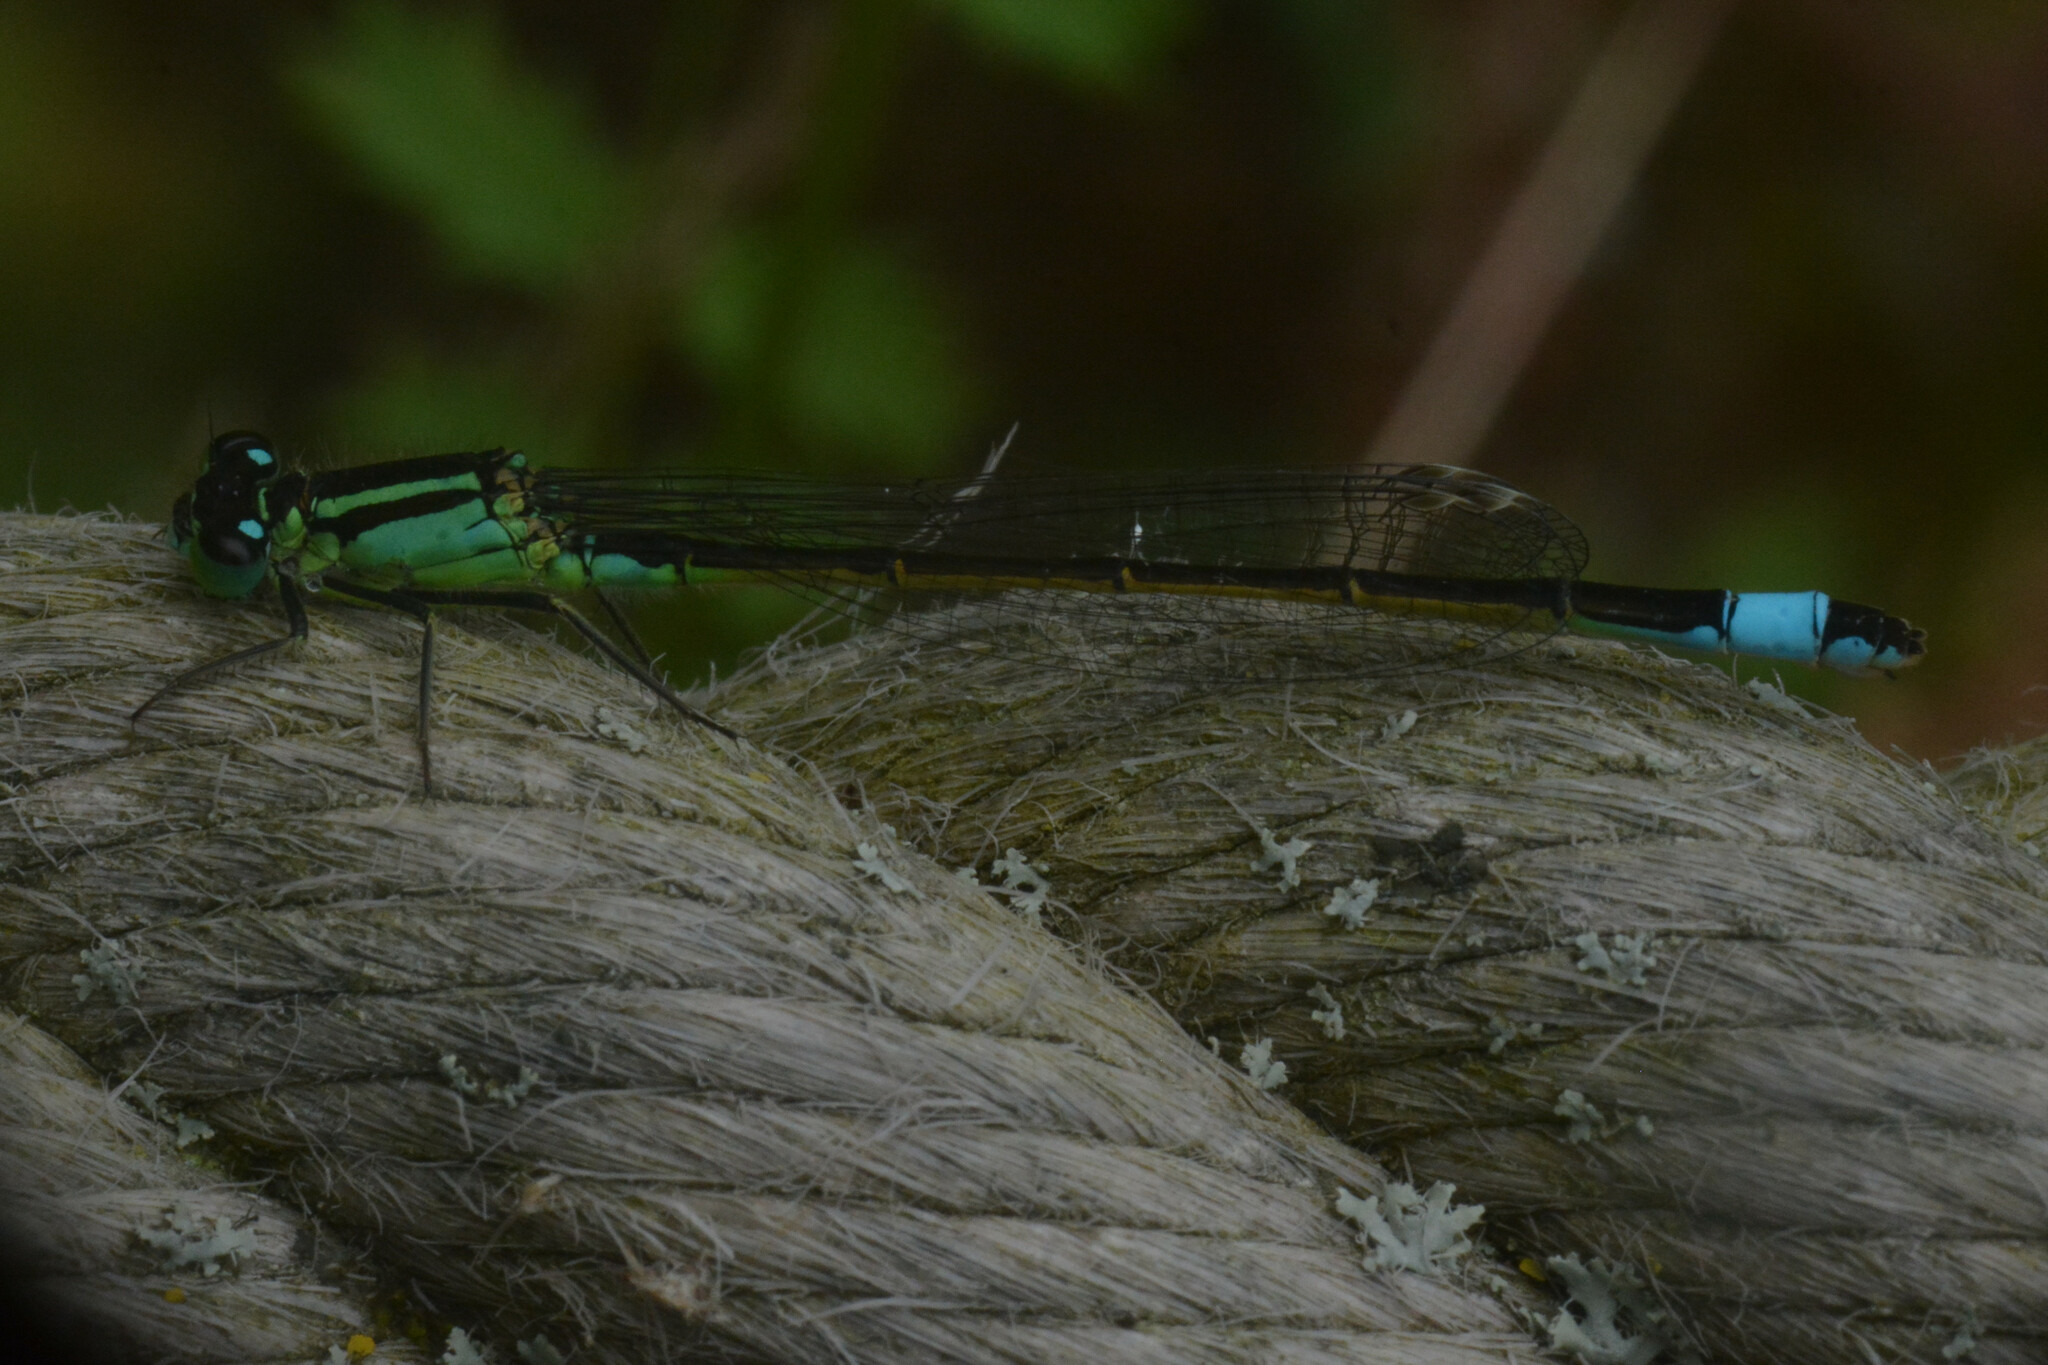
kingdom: Animalia
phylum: Arthropoda
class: Insecta
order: Odonata
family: Coenagrionidae
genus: Ischnura
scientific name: Ischnura elegans
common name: Blue-tailed damselfly
